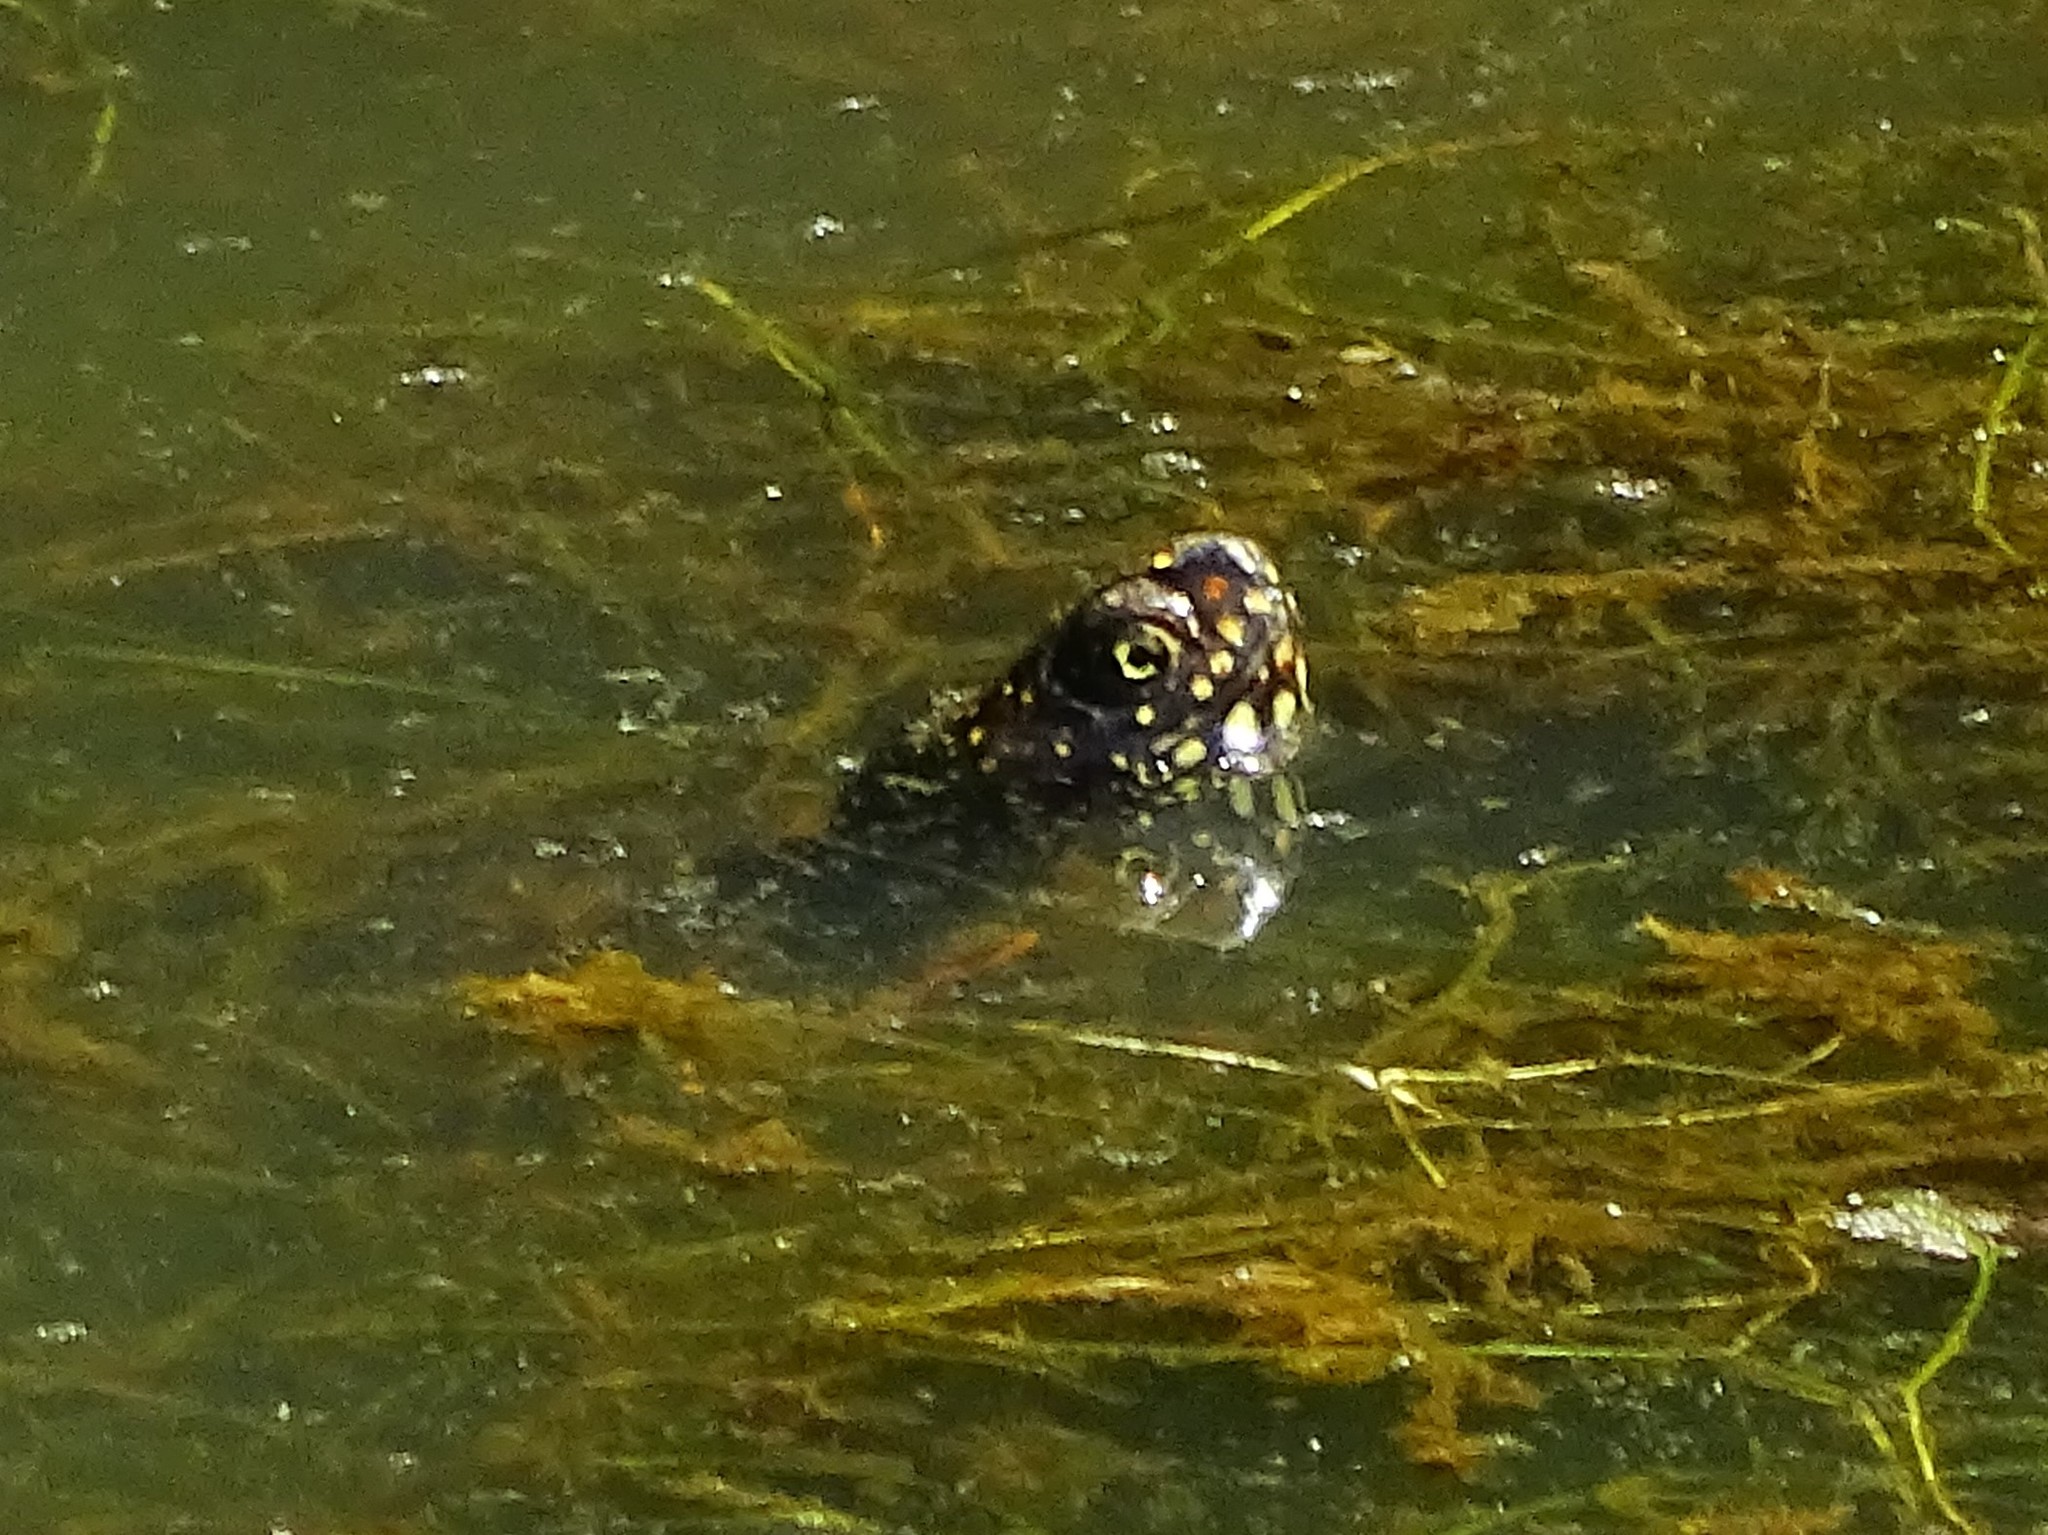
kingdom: Animalia
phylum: Chordata
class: Testudines
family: Emydidae
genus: Emys
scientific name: Emys orbicularis
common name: European pond turtle
